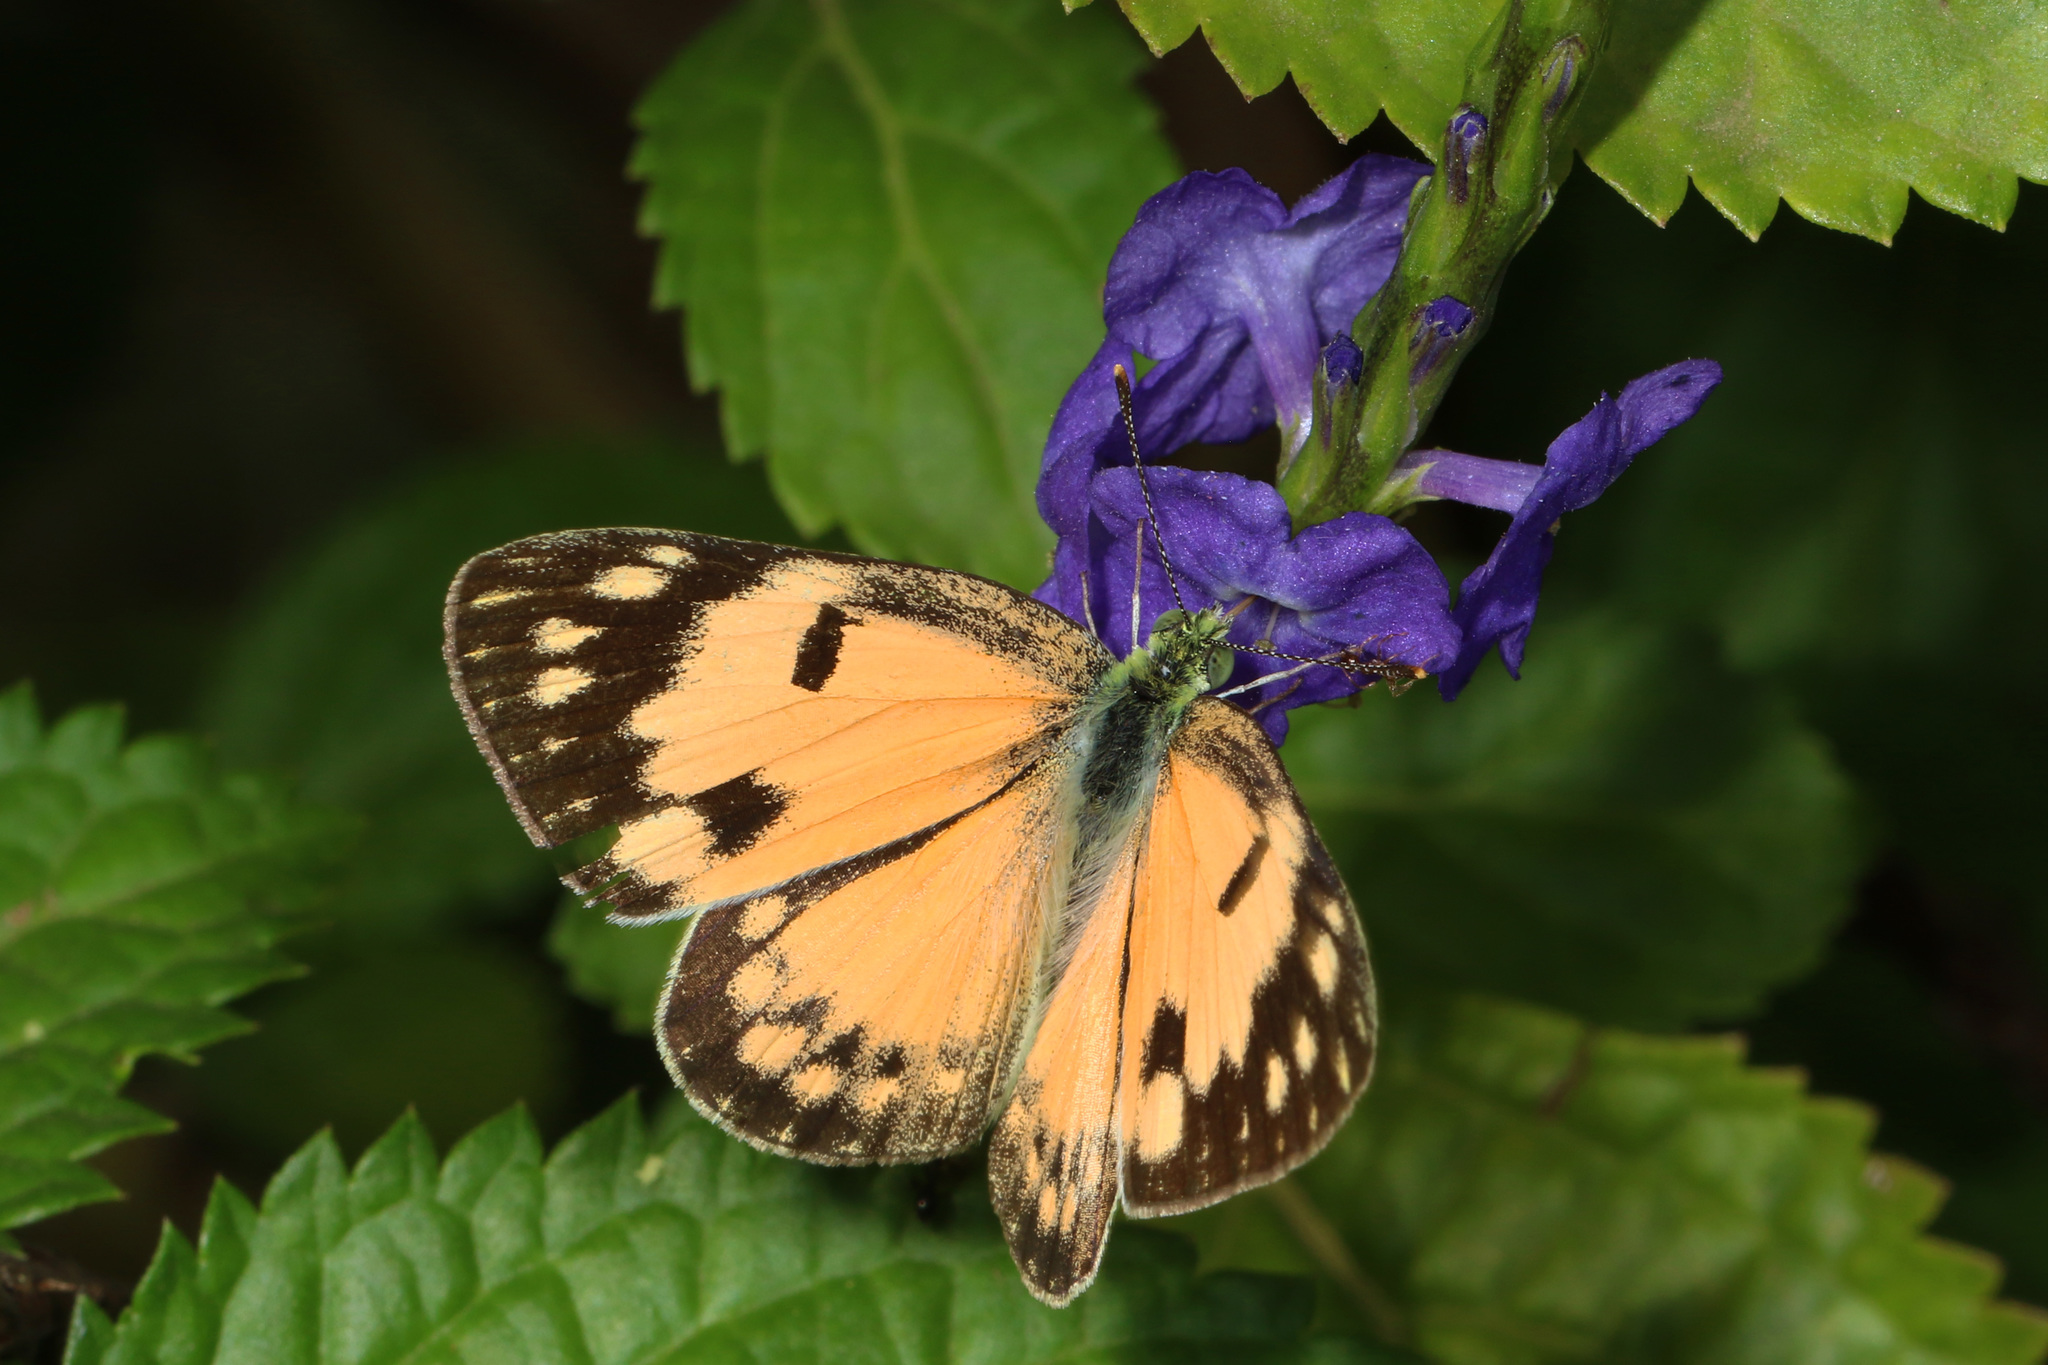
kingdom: Animalia
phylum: Arthropoda
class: Insecta
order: Lepidoptera
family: Pieridae
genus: Colotis
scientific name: Colotis amata
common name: Small salmon arab
